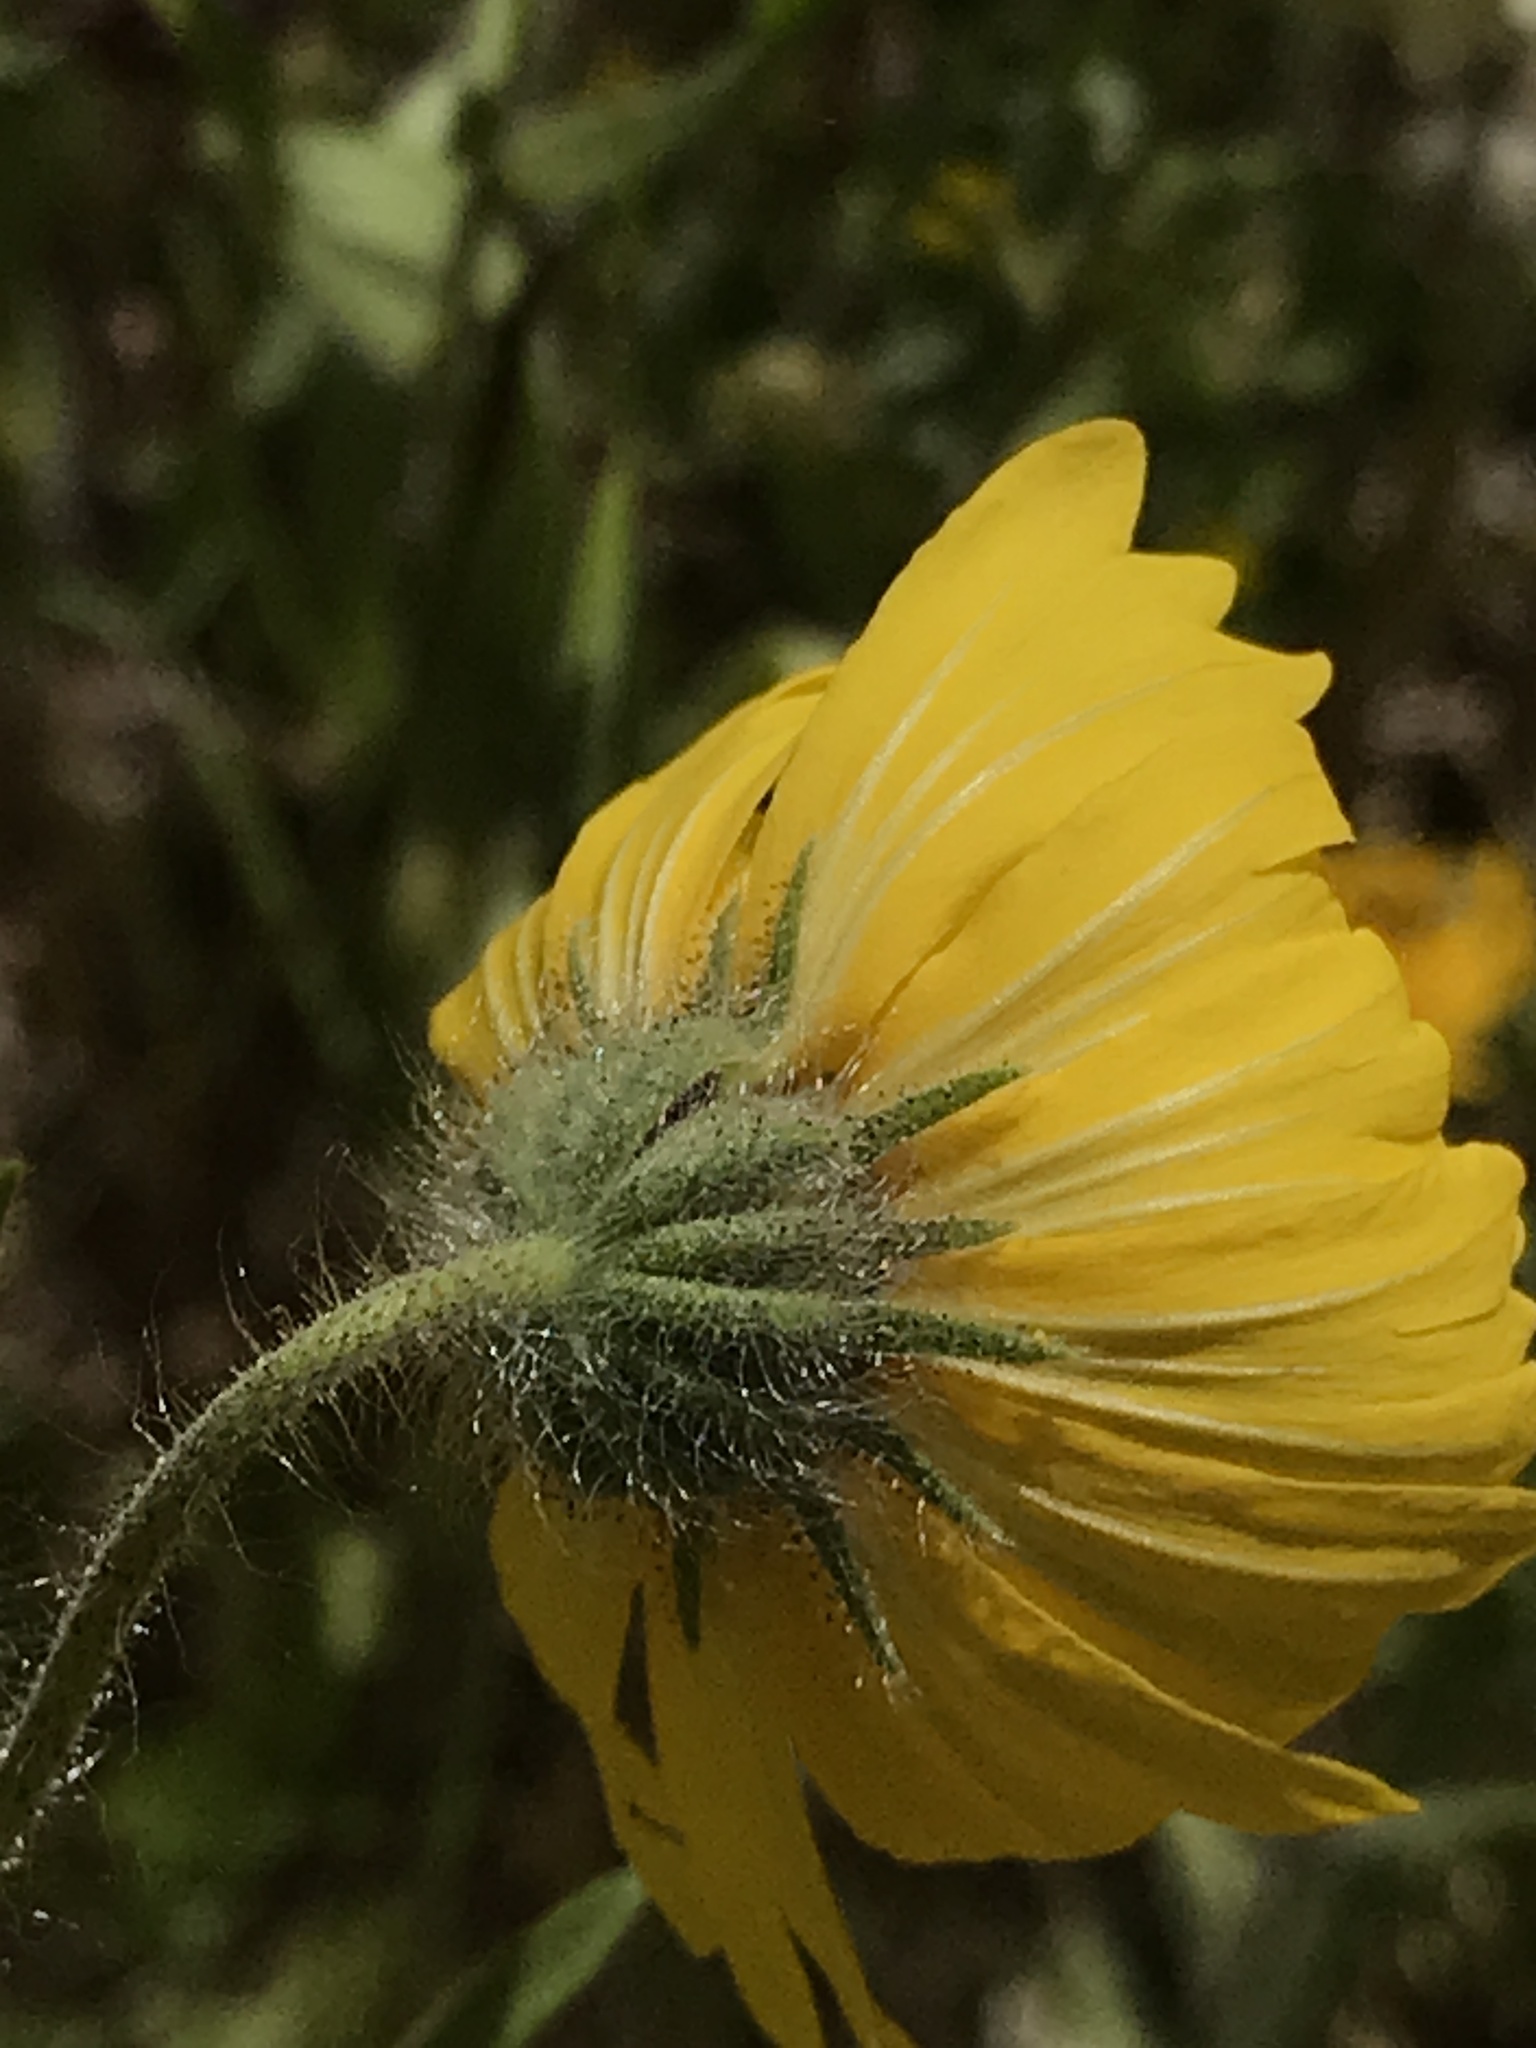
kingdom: Plantae
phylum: Tracheophyta
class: Magnoliopsida
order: Asterales
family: Asteraceae
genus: Madia
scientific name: Madia elegans
